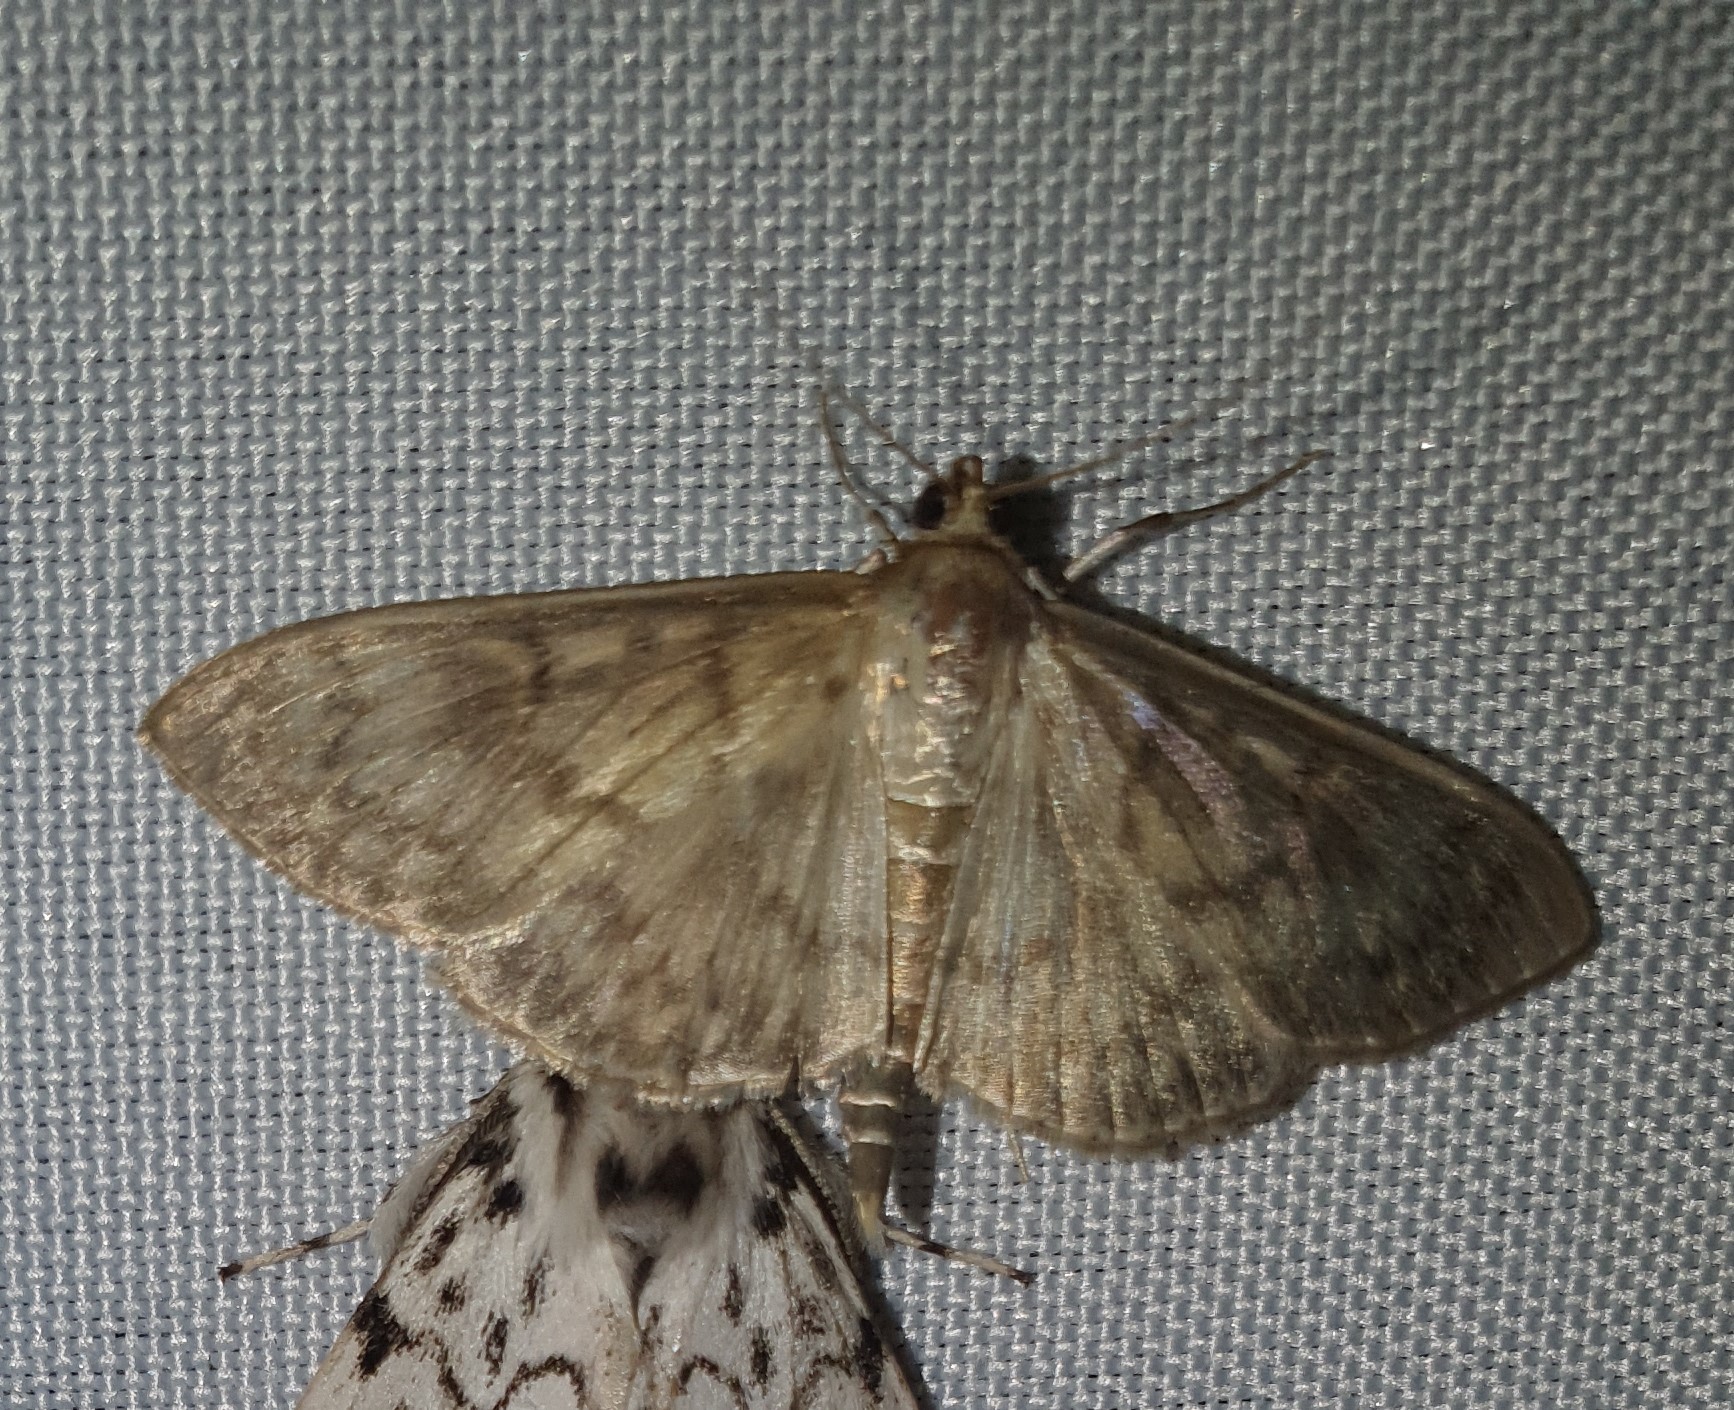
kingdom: Animalia
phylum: Arthropoda
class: Insecta
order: Lepidoptera
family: Crambidae
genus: Patania
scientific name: Patania ruralis
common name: Mother of pearl
